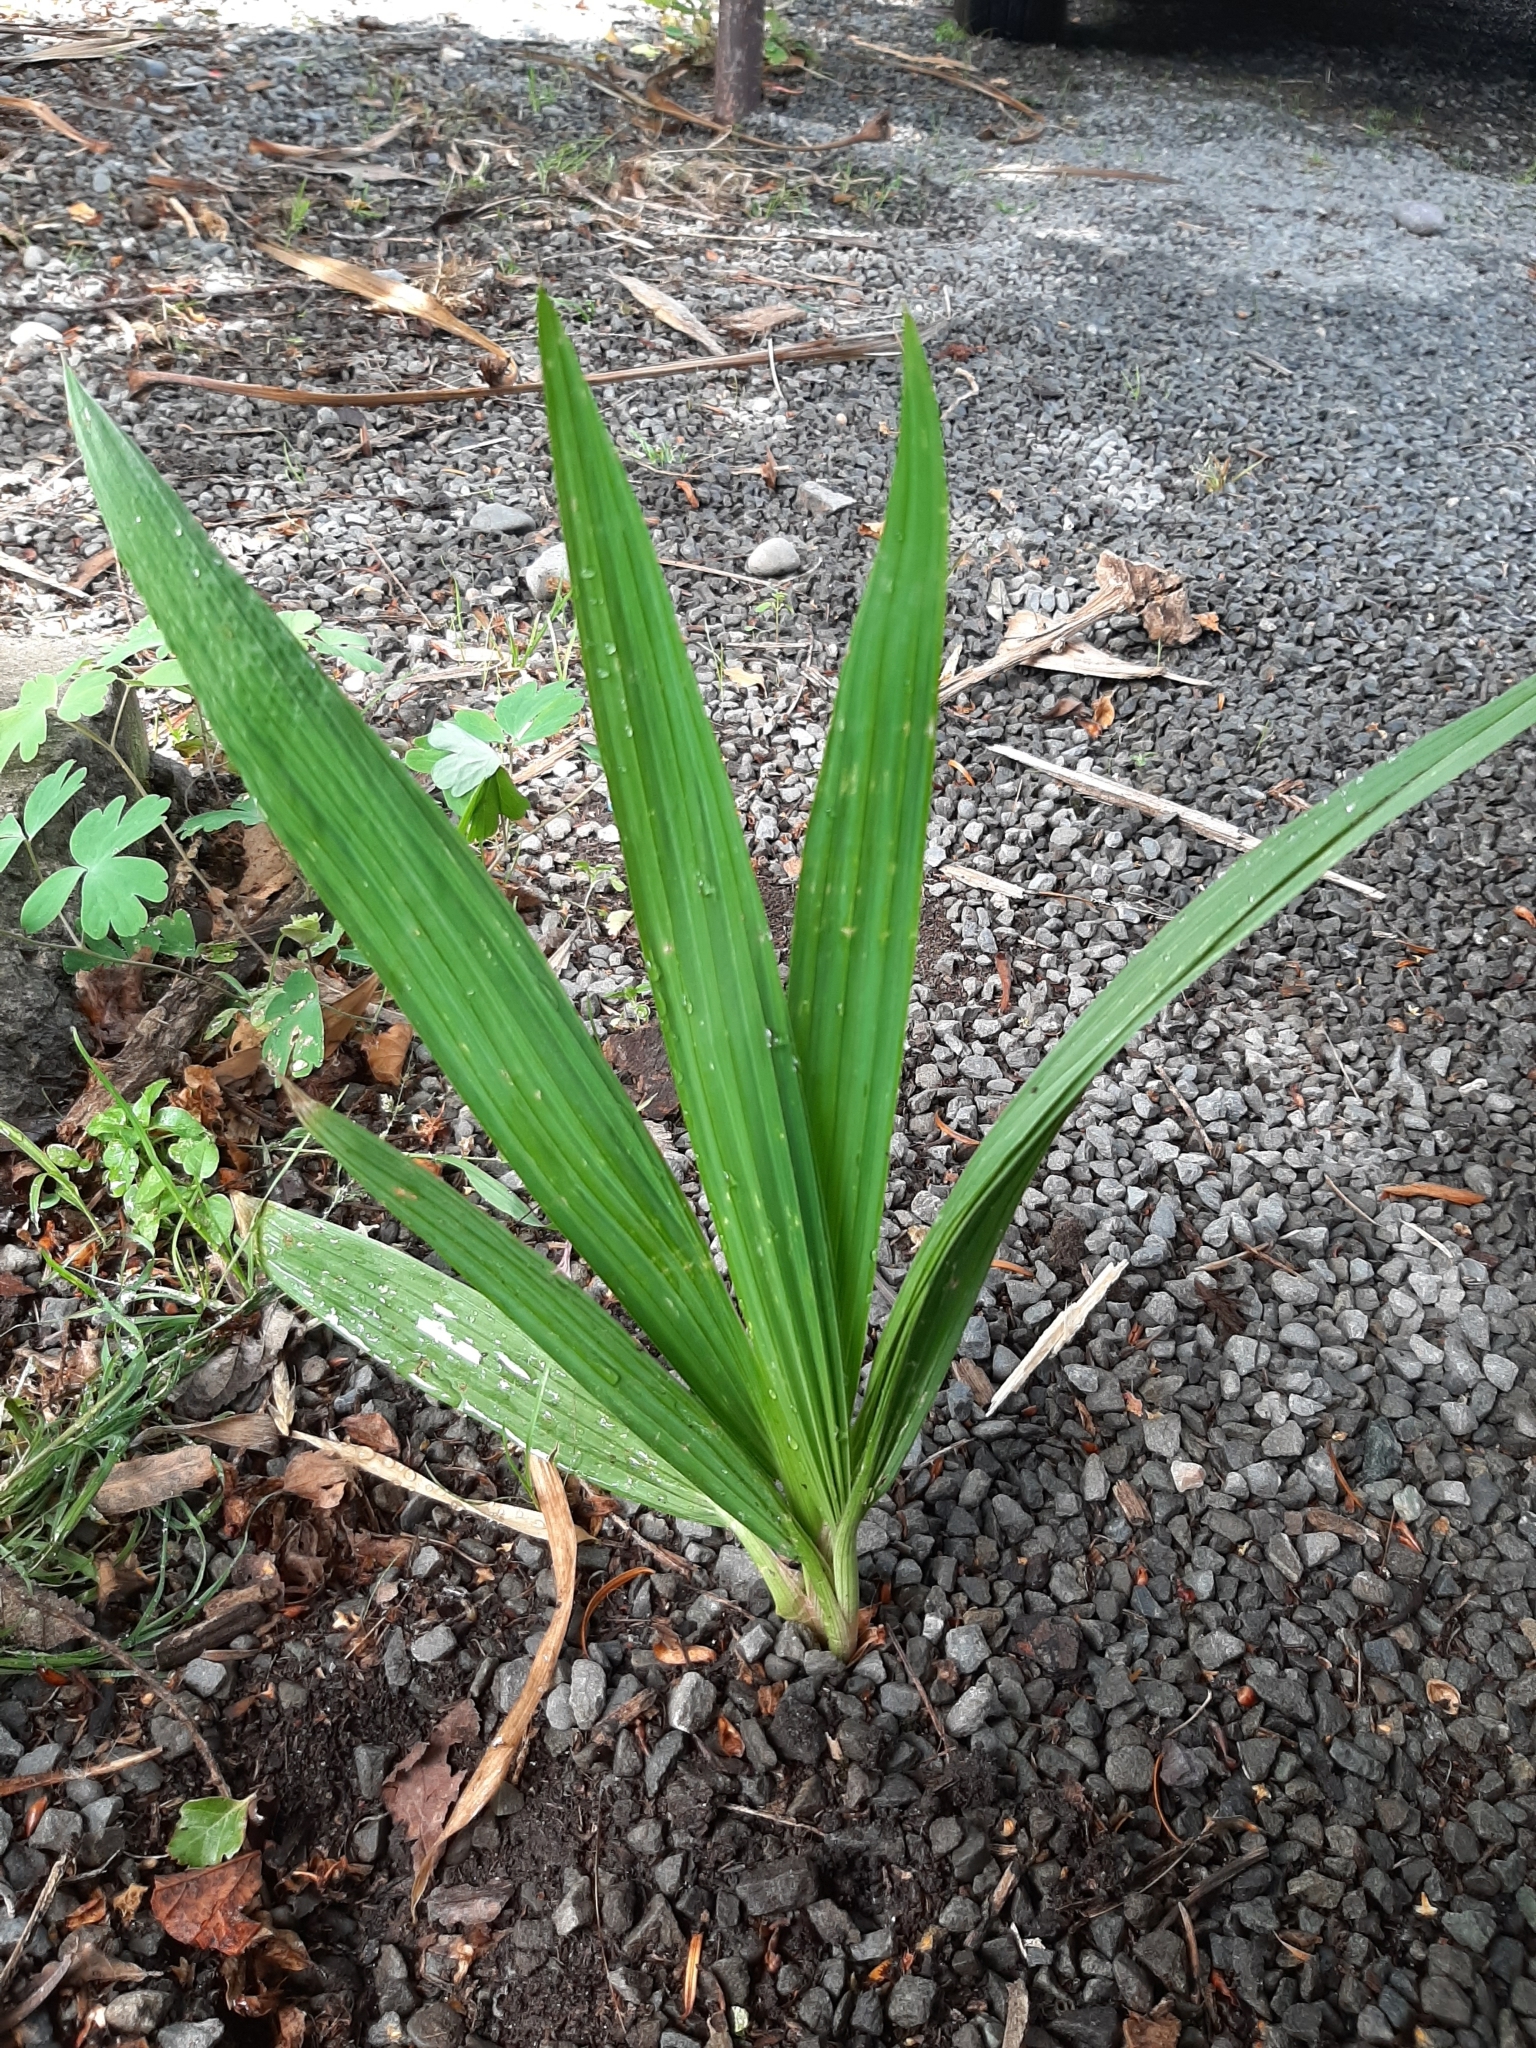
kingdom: Plantae
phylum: Tracheophyta
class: Liliopsida
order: Asparagales
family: Iridaceae
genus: Tigridia
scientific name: Tigridia pavonia
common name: Peacock-flower
